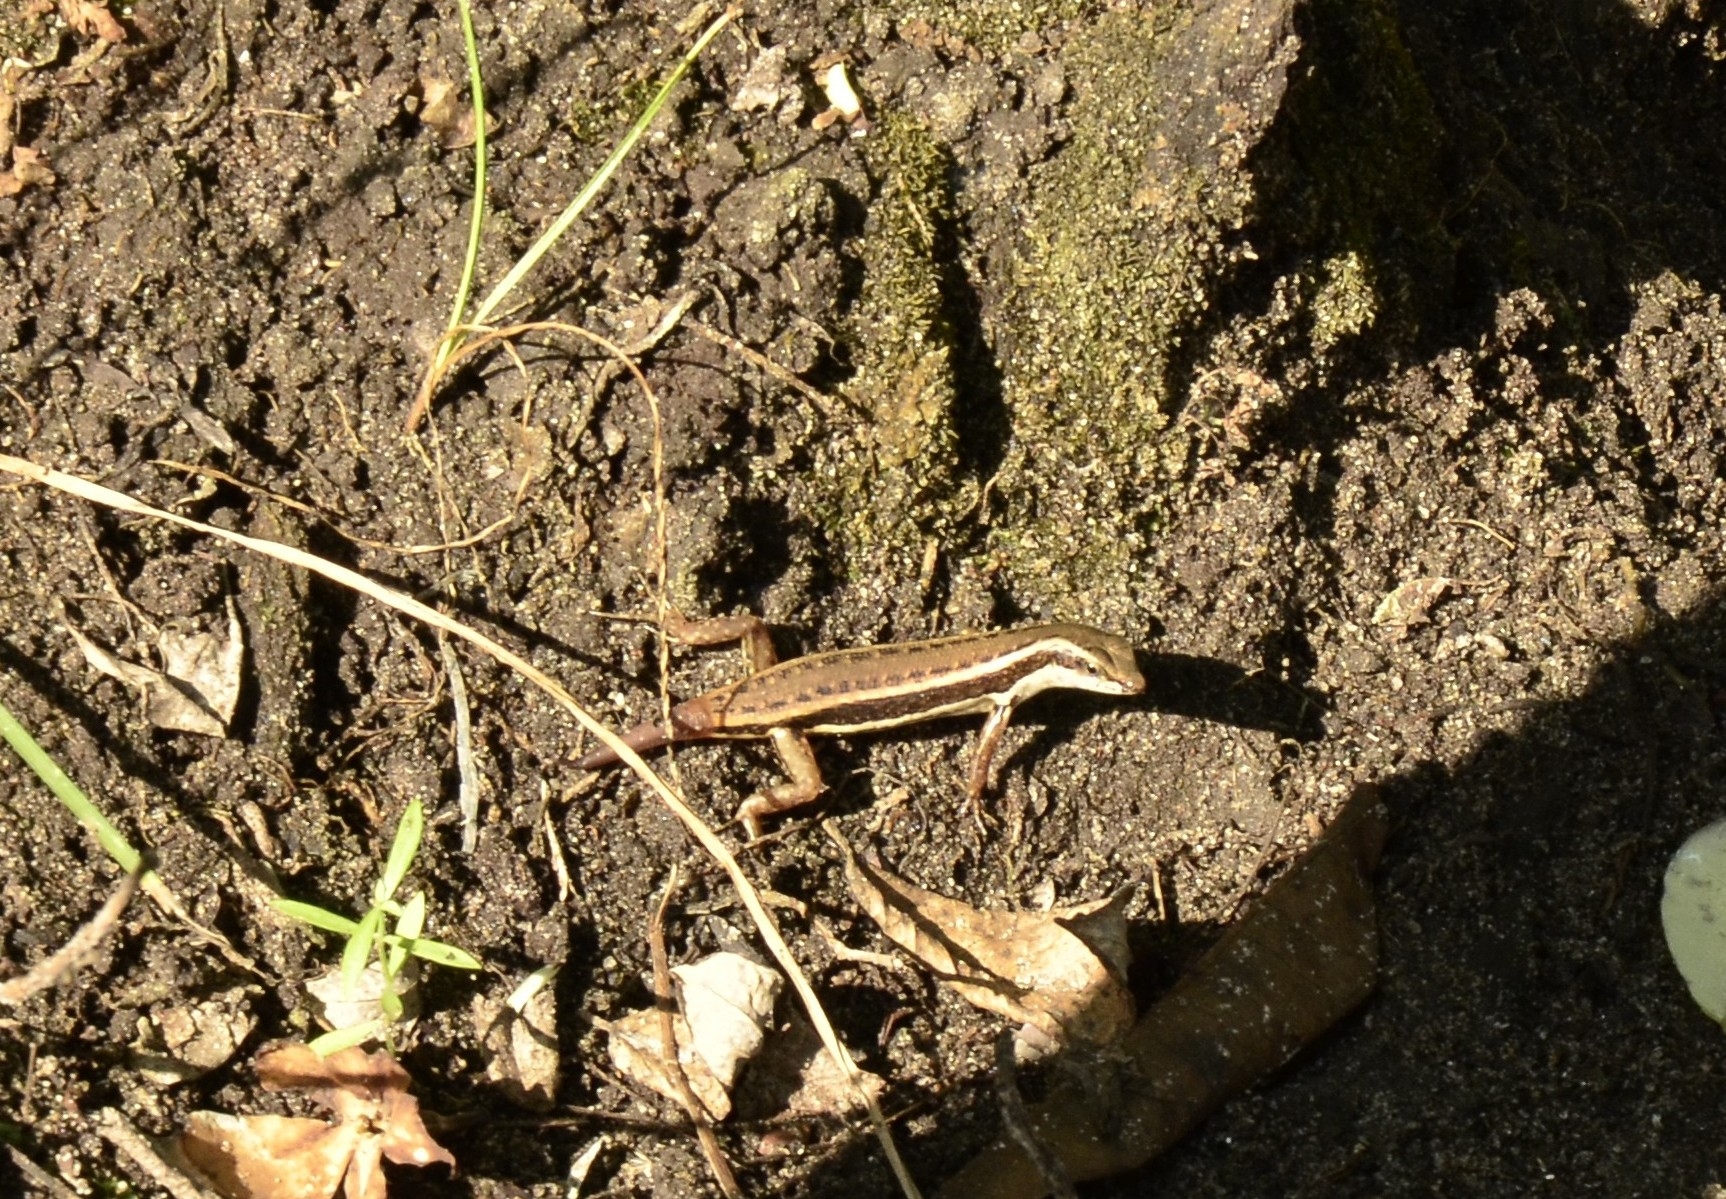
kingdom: Animalia
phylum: Chordata
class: Squamata
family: Scincidae
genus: Sphenomorphus
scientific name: Sphenomorphus dussumieri
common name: Dussumier's forest skink
